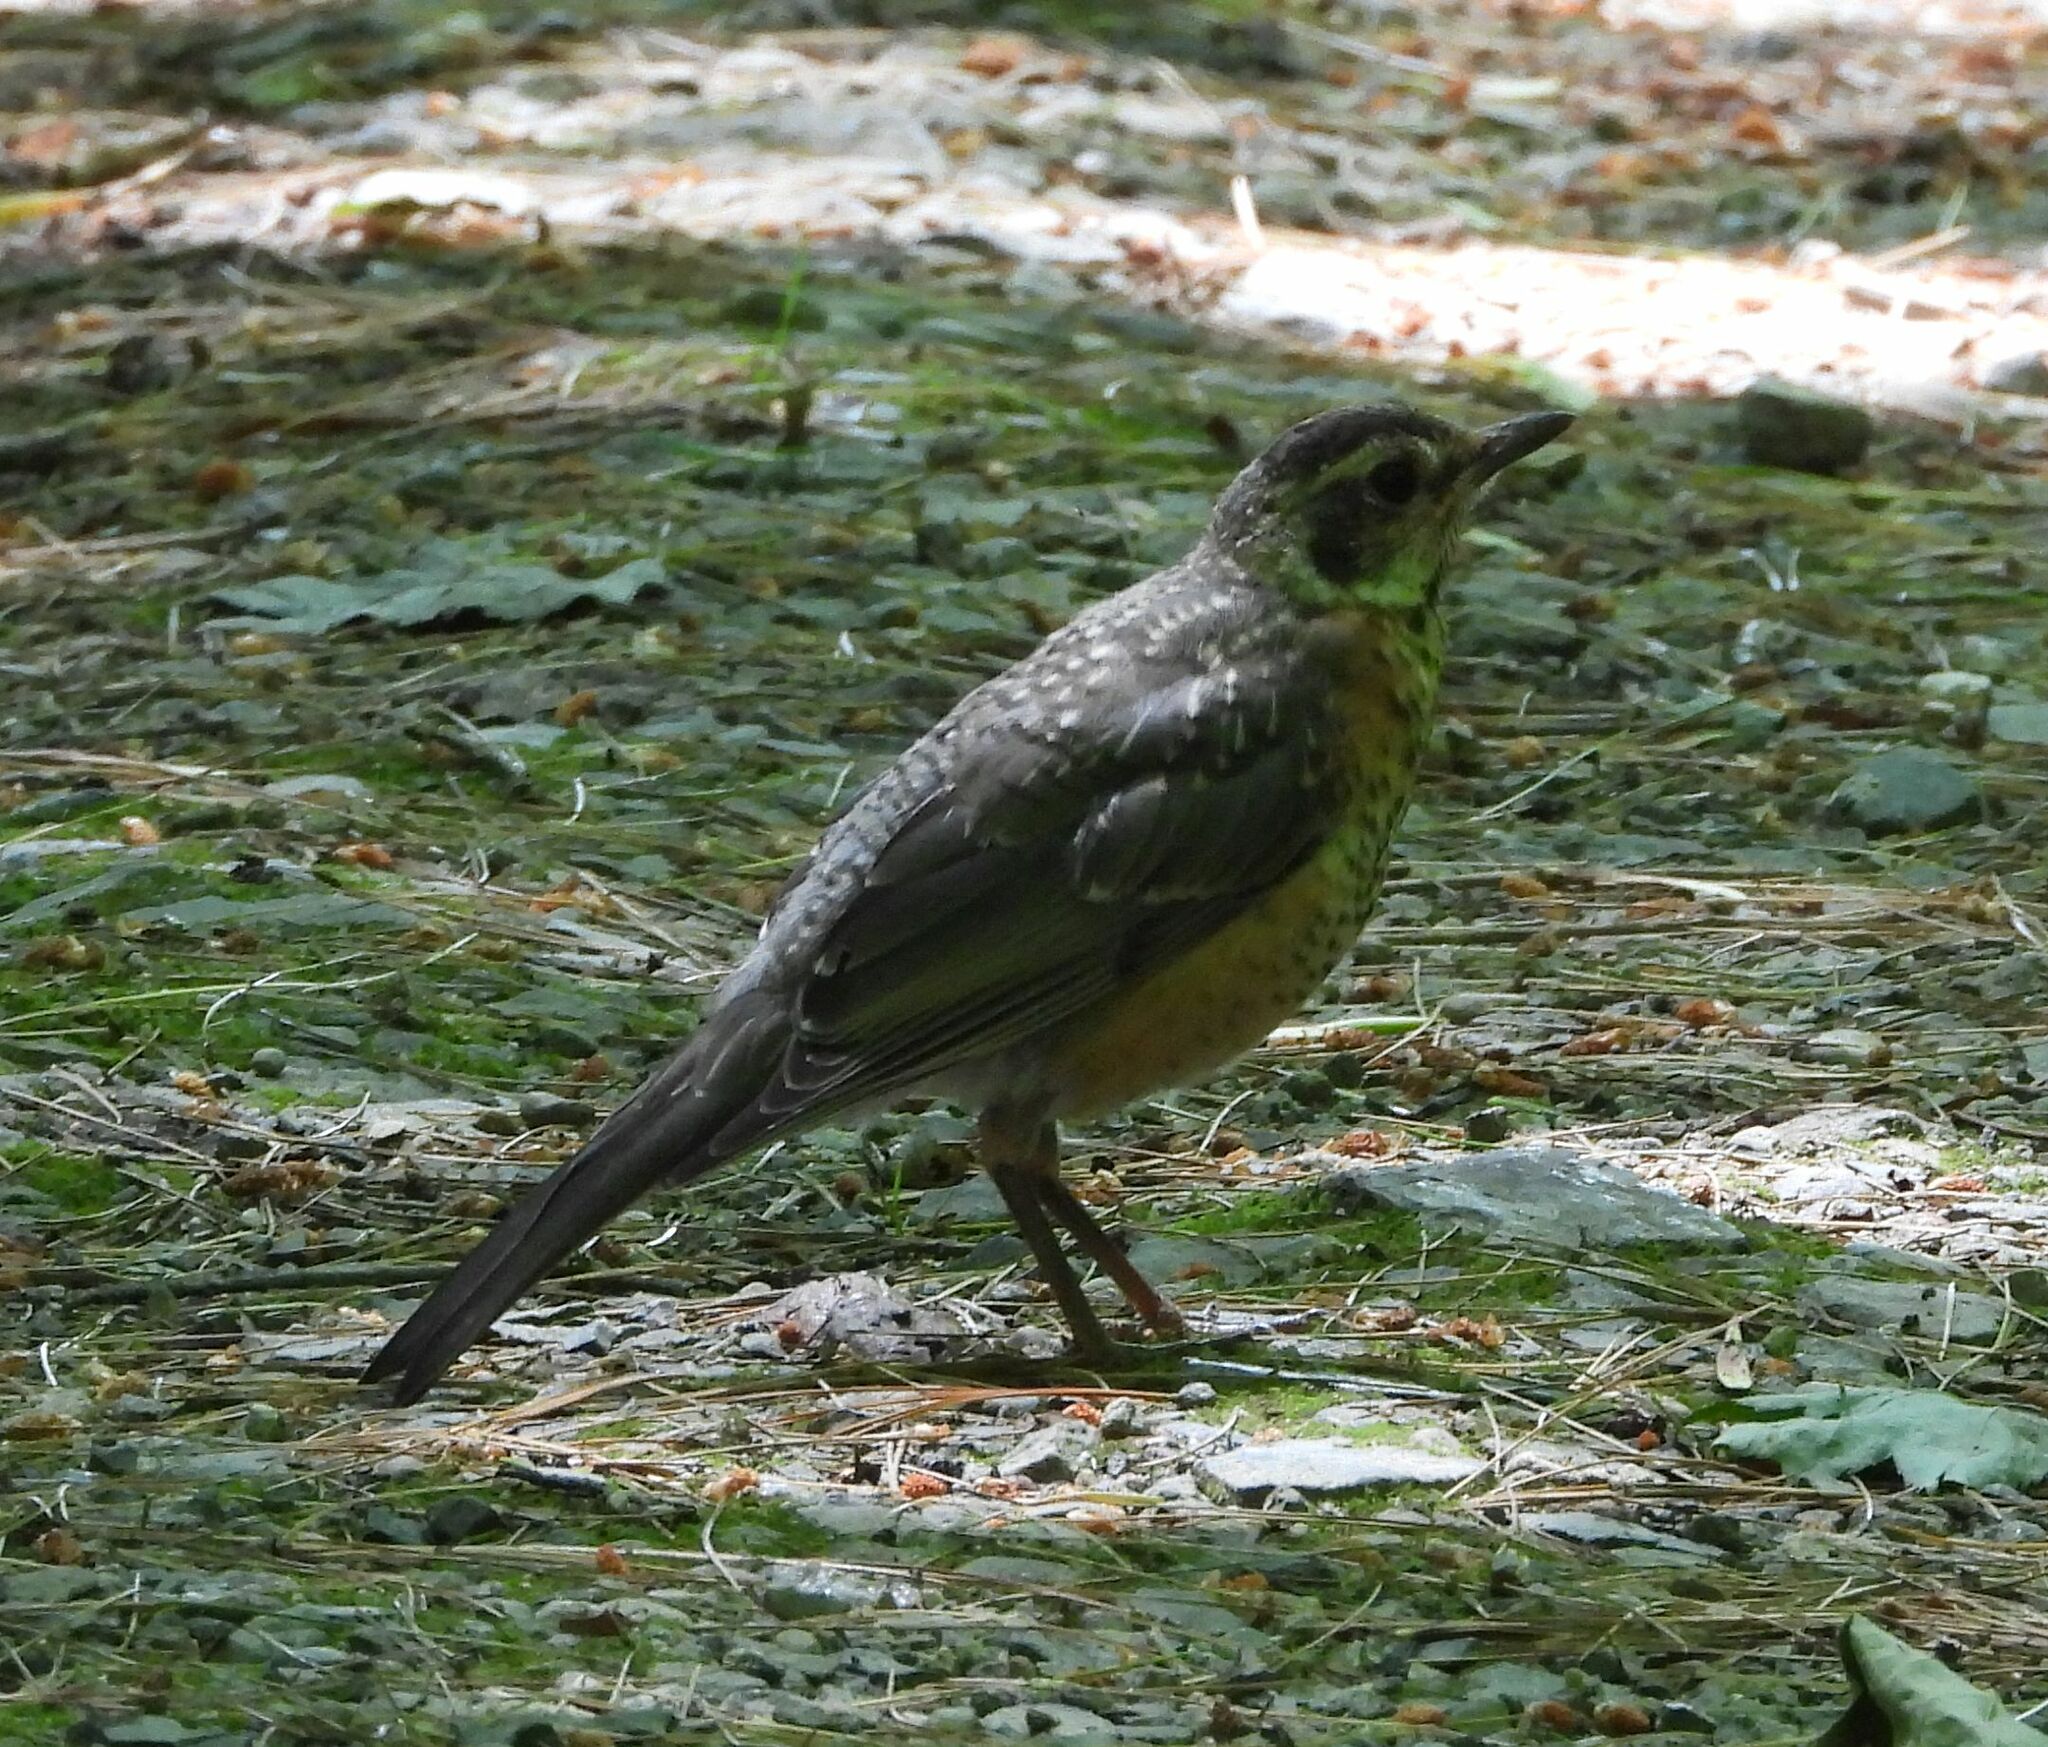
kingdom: Animalia
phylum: Chordata
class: Aves
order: Passeriformes
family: Turdidae
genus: Turdus
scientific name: Turdus migratorius
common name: American robin
